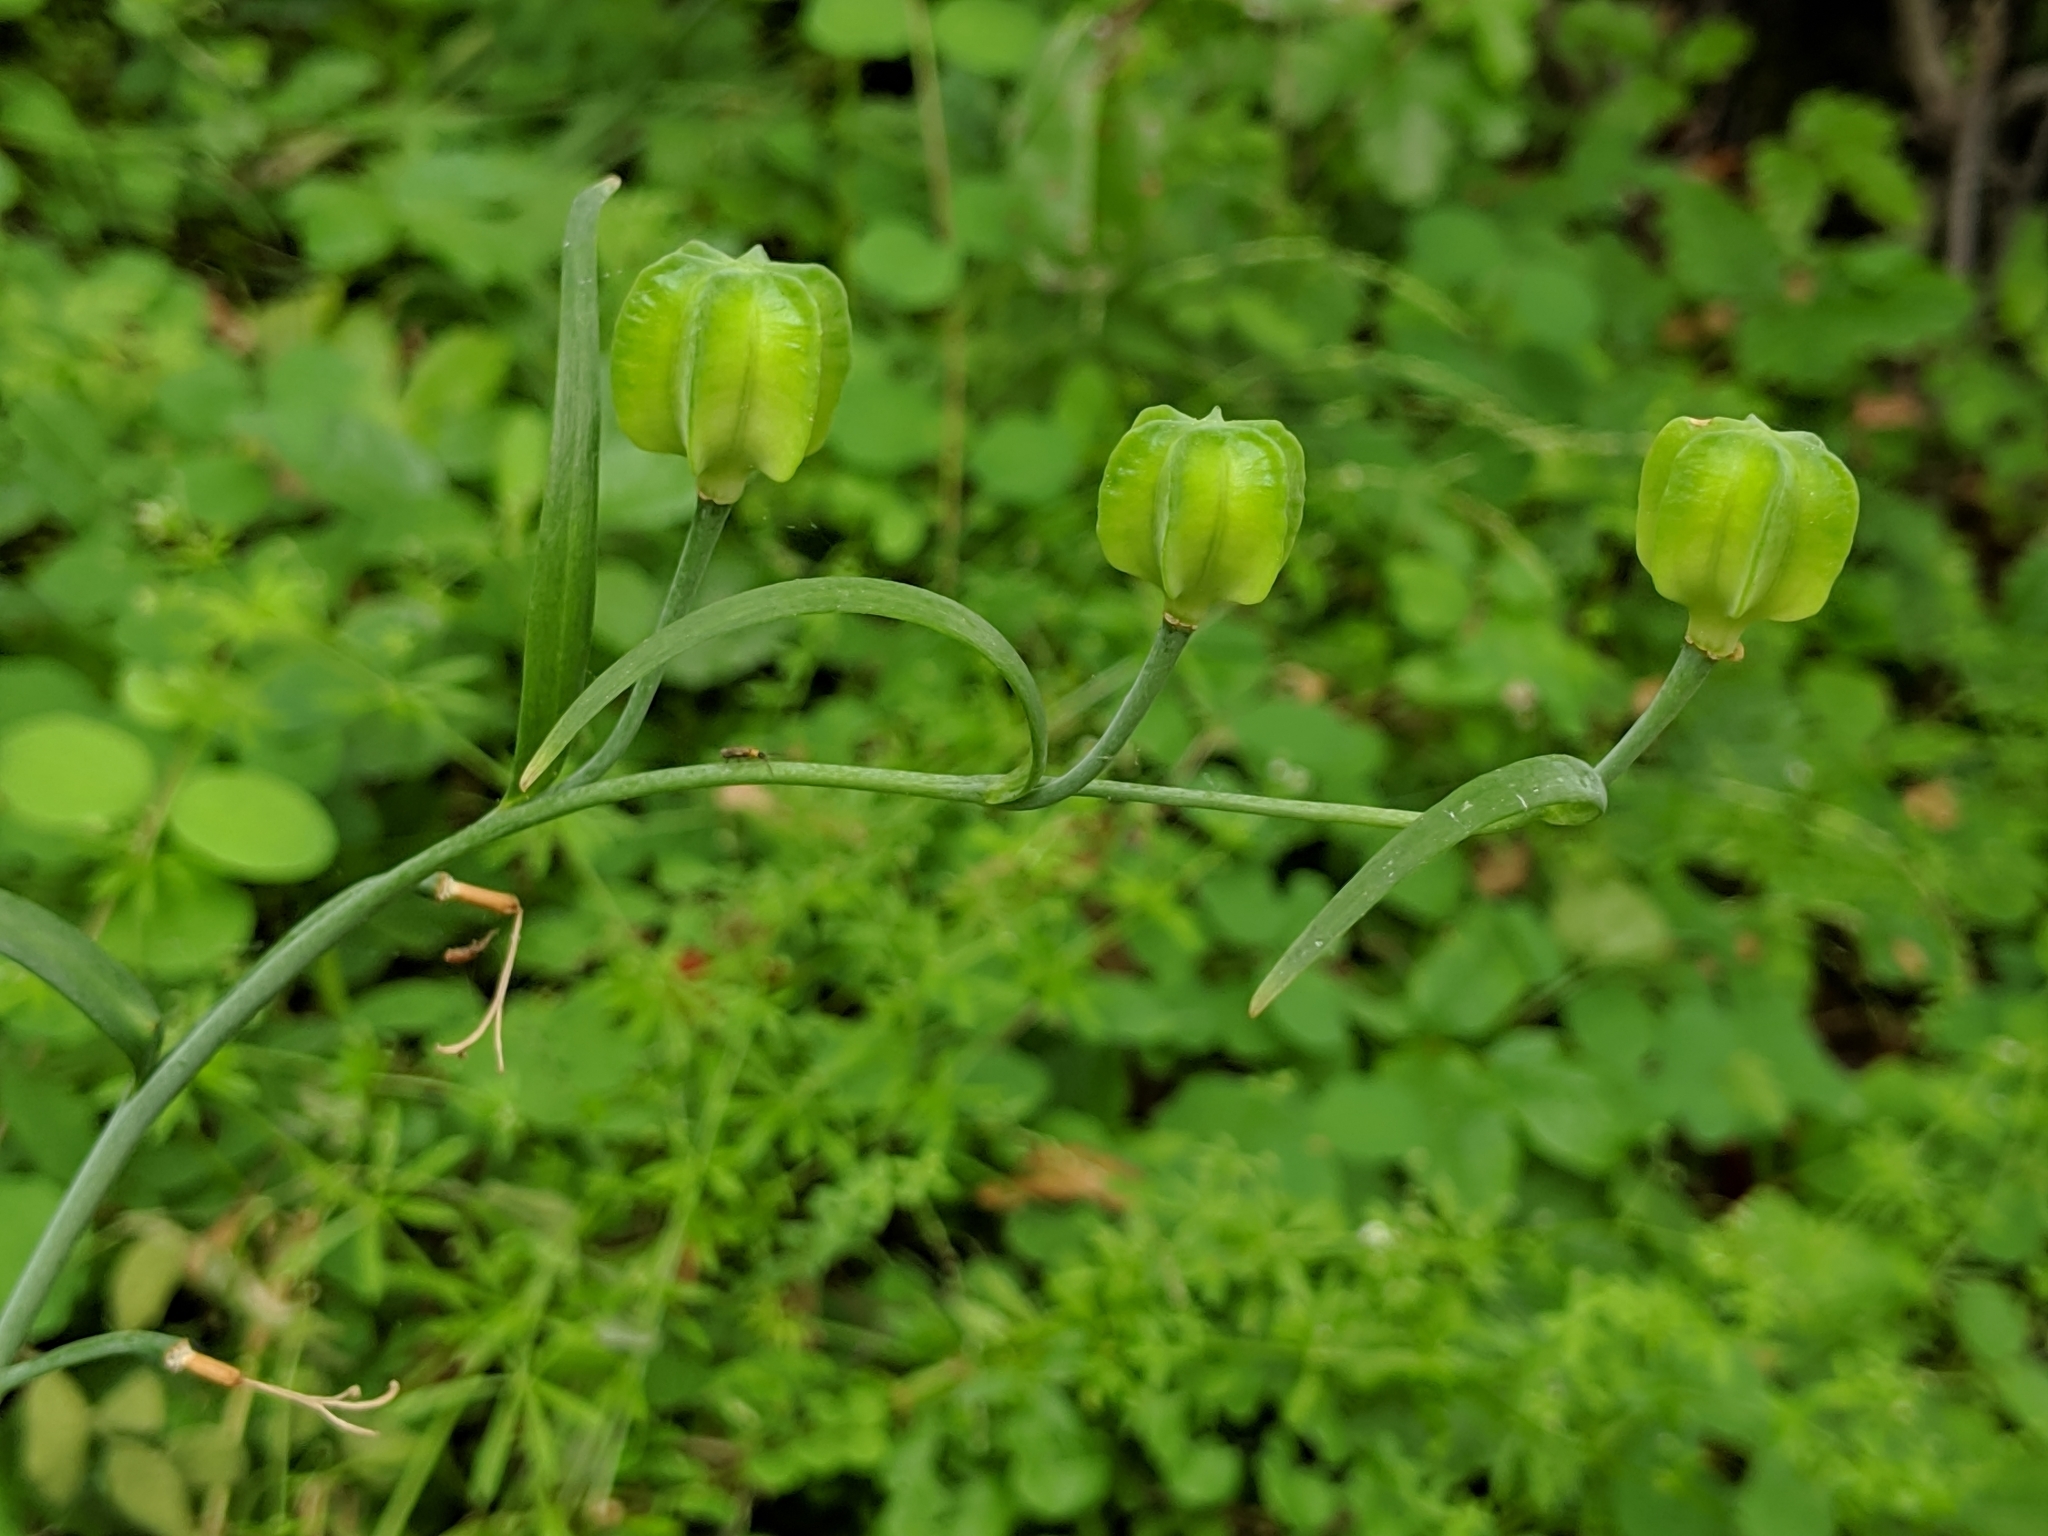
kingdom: Plantae
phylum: Tracheophyta
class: Liliopsida
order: Liliales
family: Liliaceae
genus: Fritillaria
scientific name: Fritillaria affinis
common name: Ojai fritillary
